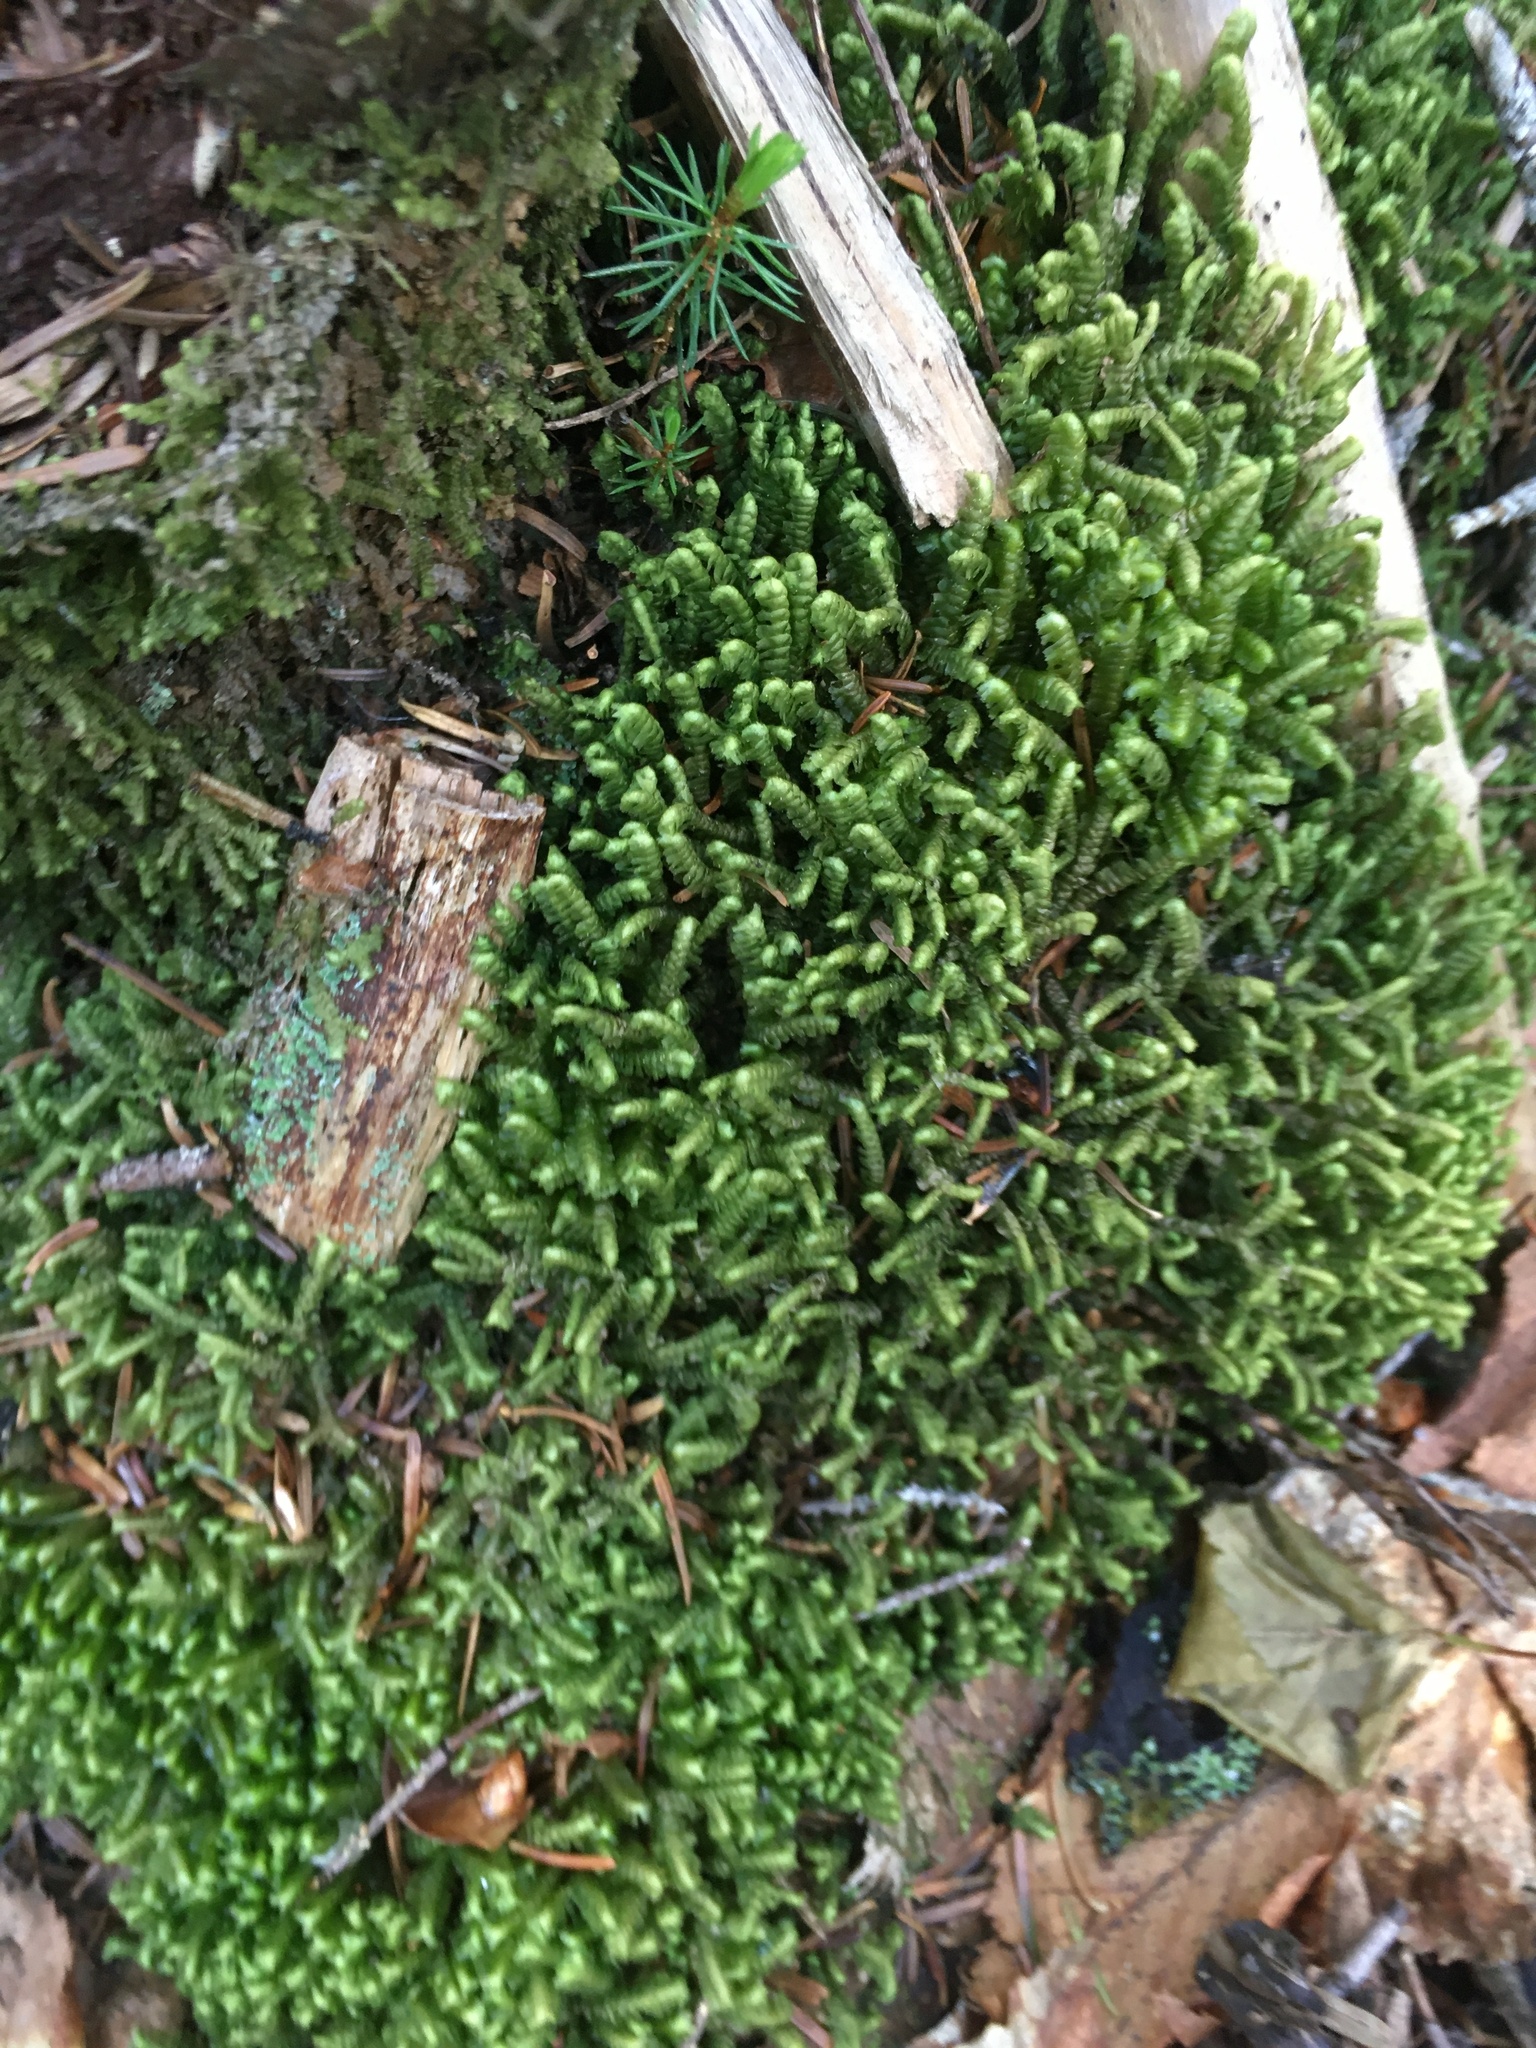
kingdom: Plantae
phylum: Marchantiophyta
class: Jungermanniopsida
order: Jungermanniales
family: Lepidoziaceae
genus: Bazzania
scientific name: Bazzania trilobata
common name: Three-lobed whipwort
